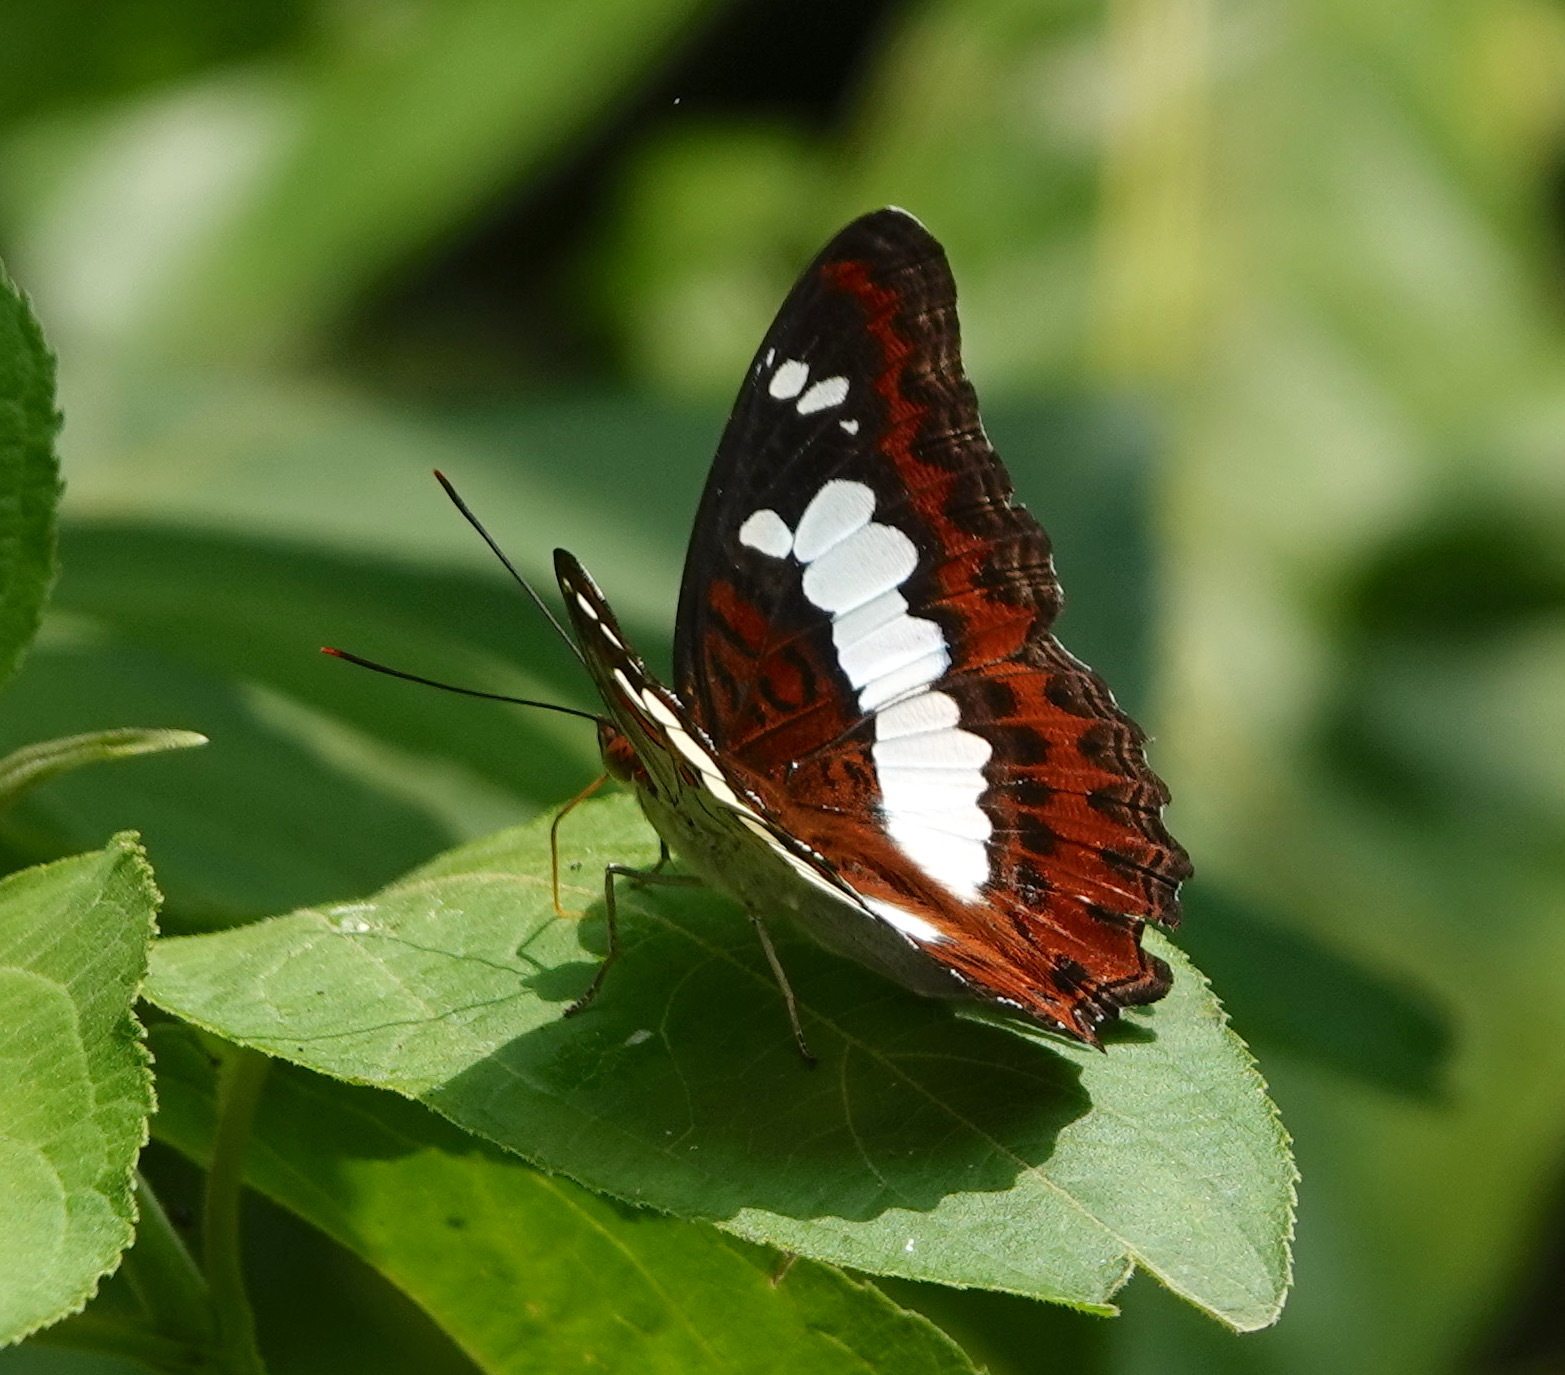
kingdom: Animalia
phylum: Arthropoda
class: Insecta
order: Lepidoptera
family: Nymphalidae
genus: Limenitis
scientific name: Limenitis Moduza procris
